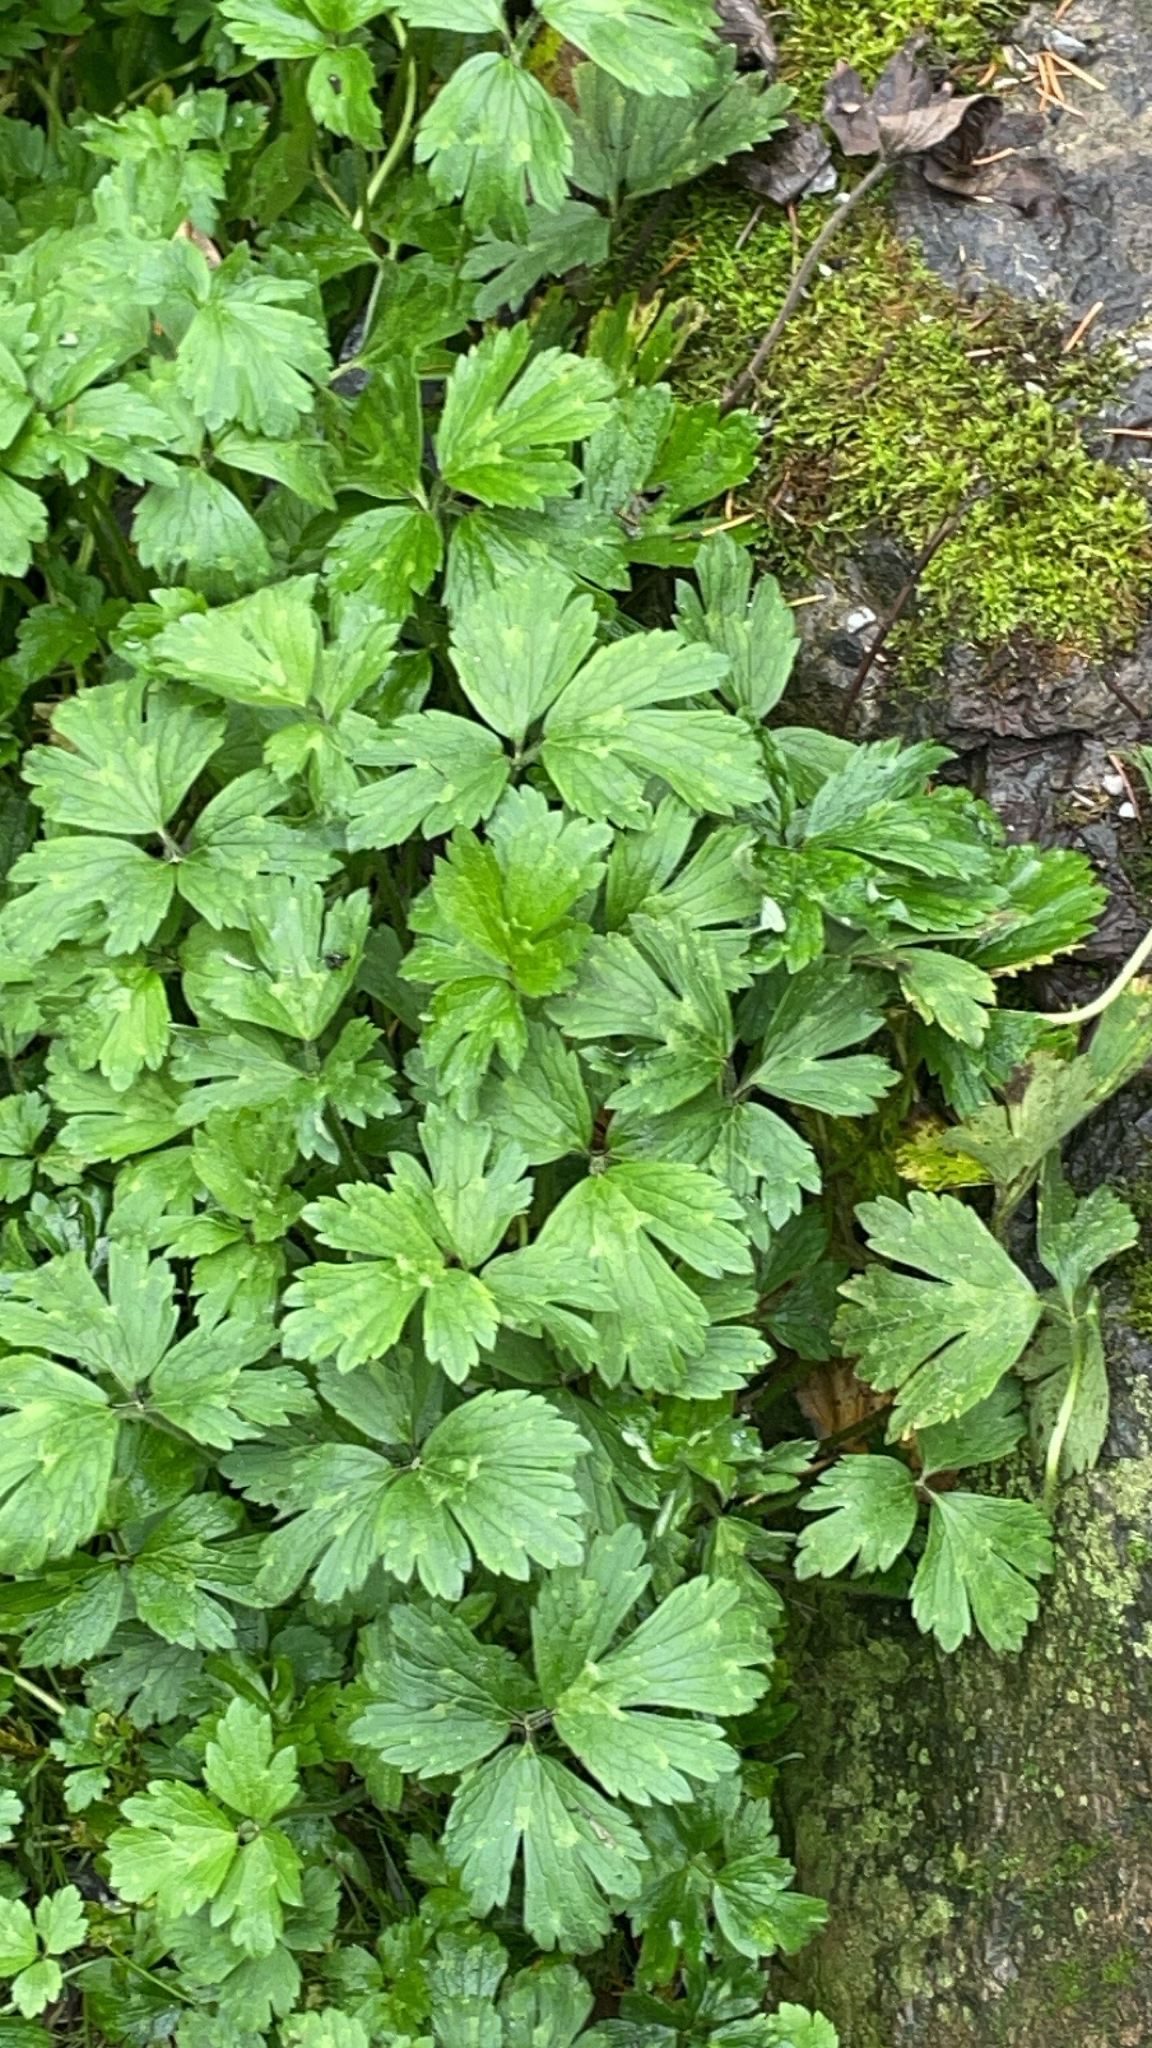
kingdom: Plantae
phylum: Tracheophyta
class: Magnoliopsida
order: Ranunculales
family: Ranunculaceae
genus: Ranunculus
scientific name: Ranunculus repens
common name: Creeping buttercup
